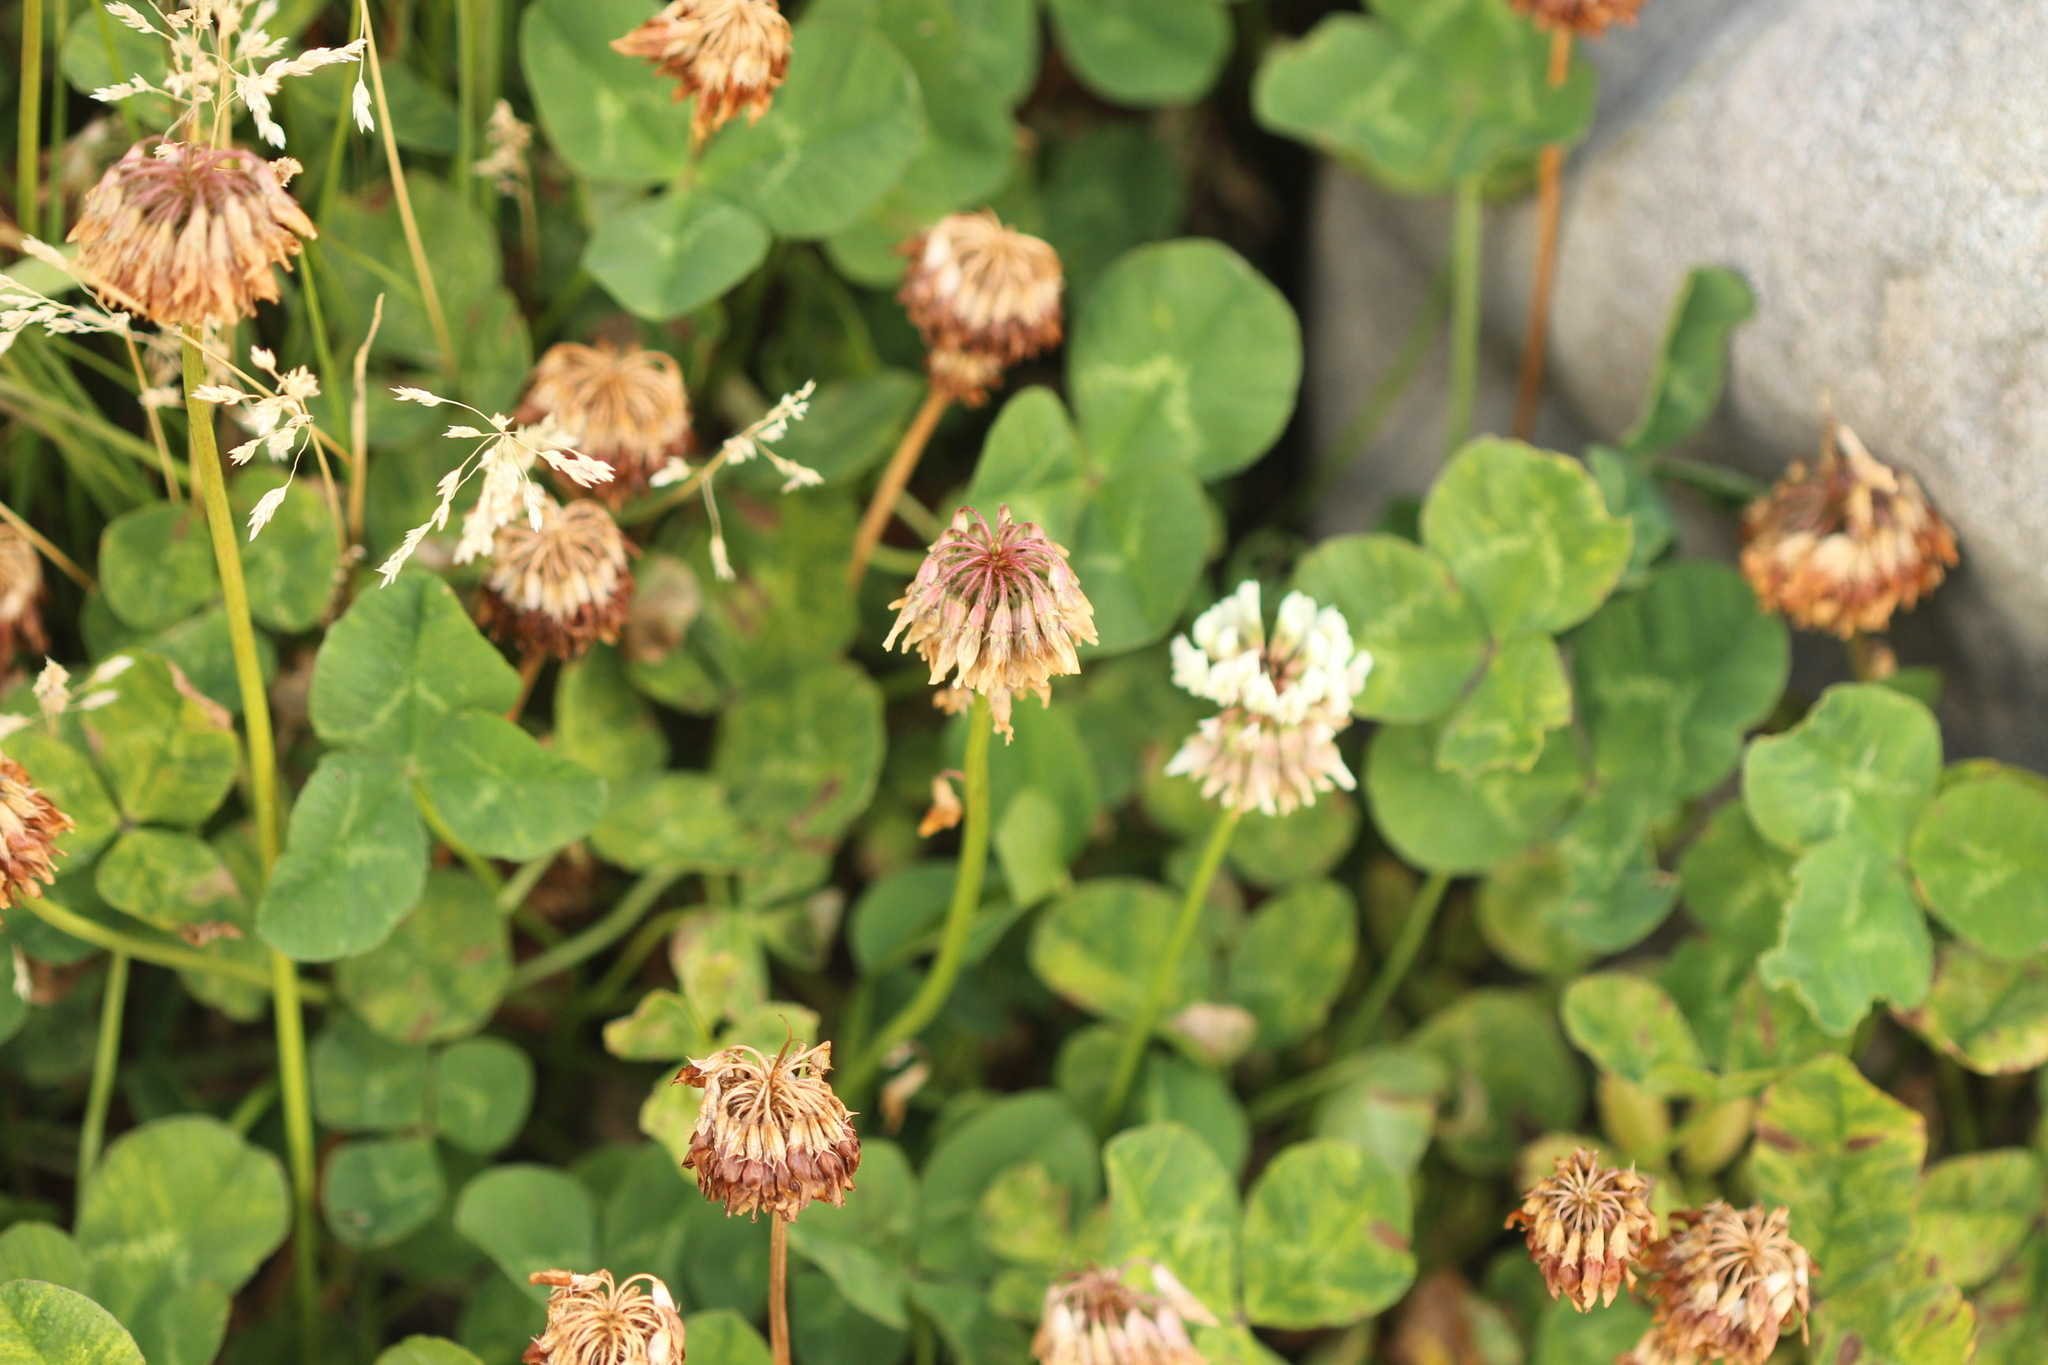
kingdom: Plantae
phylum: Tracheophyta
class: Magnoliopsida
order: Fabales
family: Fabaceae
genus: Trifolium
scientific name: Trifolium repens
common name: White clover
